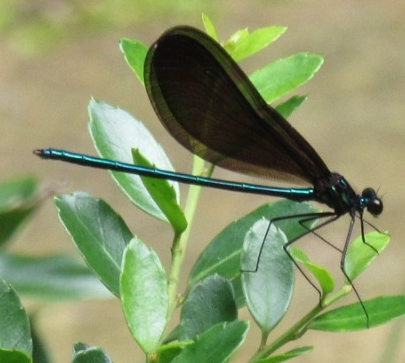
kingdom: Animalia
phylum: Arthropoda
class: Insecta
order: Odonata
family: Calopterygidae
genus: Calopteryx
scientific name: Calopteryx maculata
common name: Ebony jewelwing
